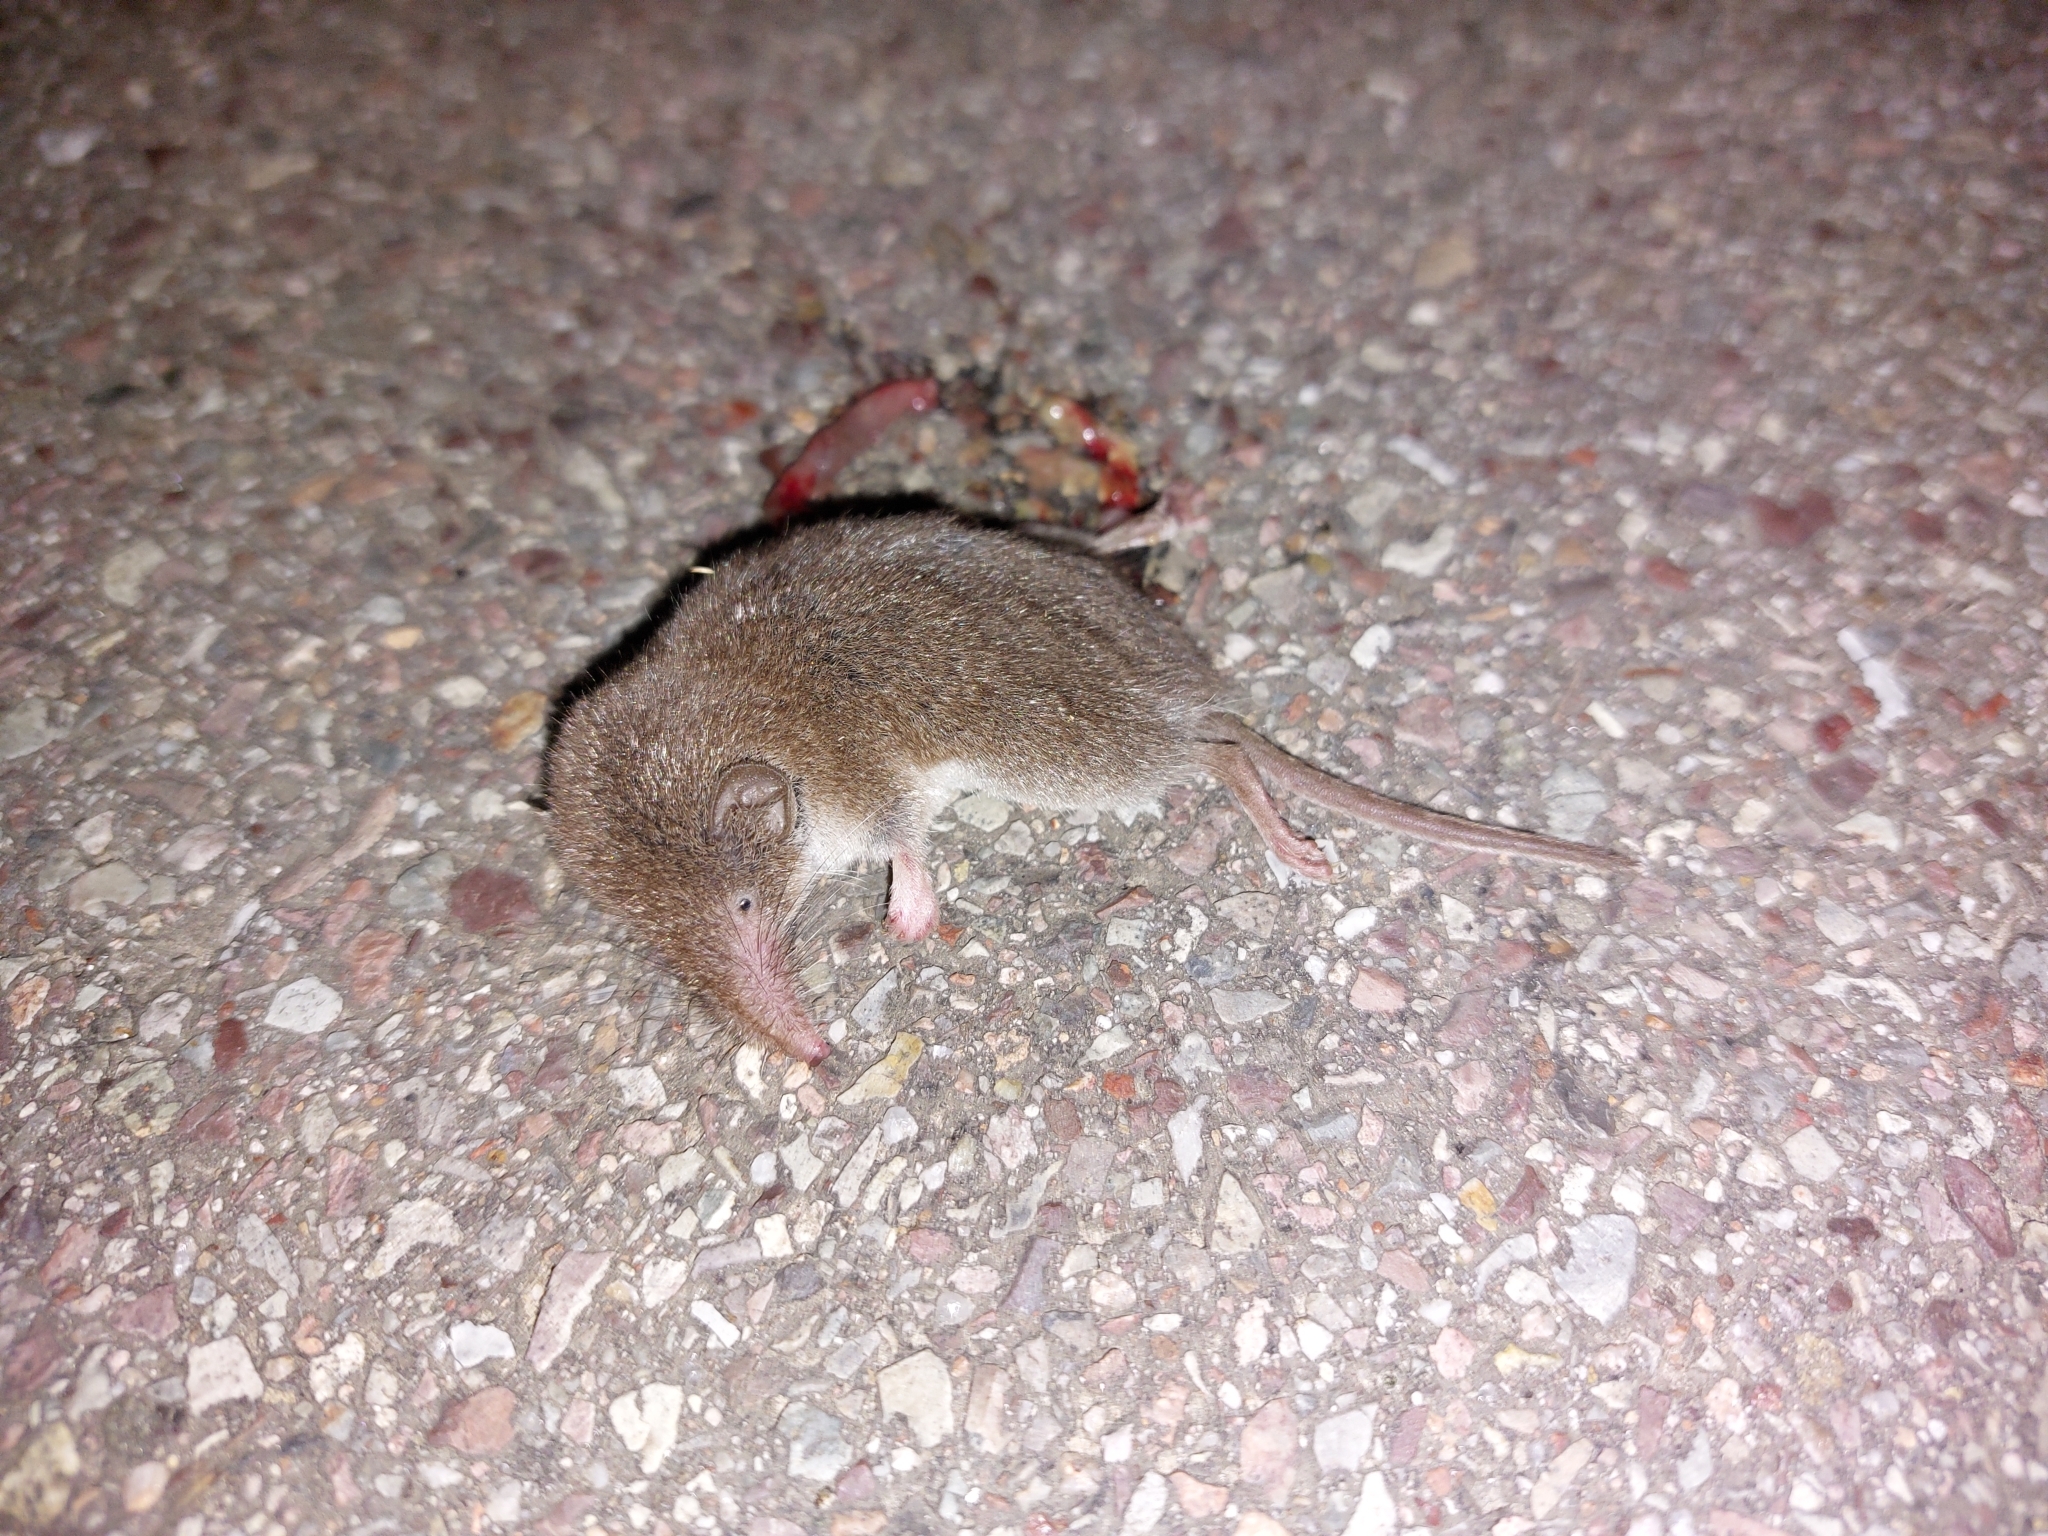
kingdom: Animalia
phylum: Chordata
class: Mammalia
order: Soricomorpha
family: Soricidae
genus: Sorex
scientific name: Sorex araneus
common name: Common shrew
